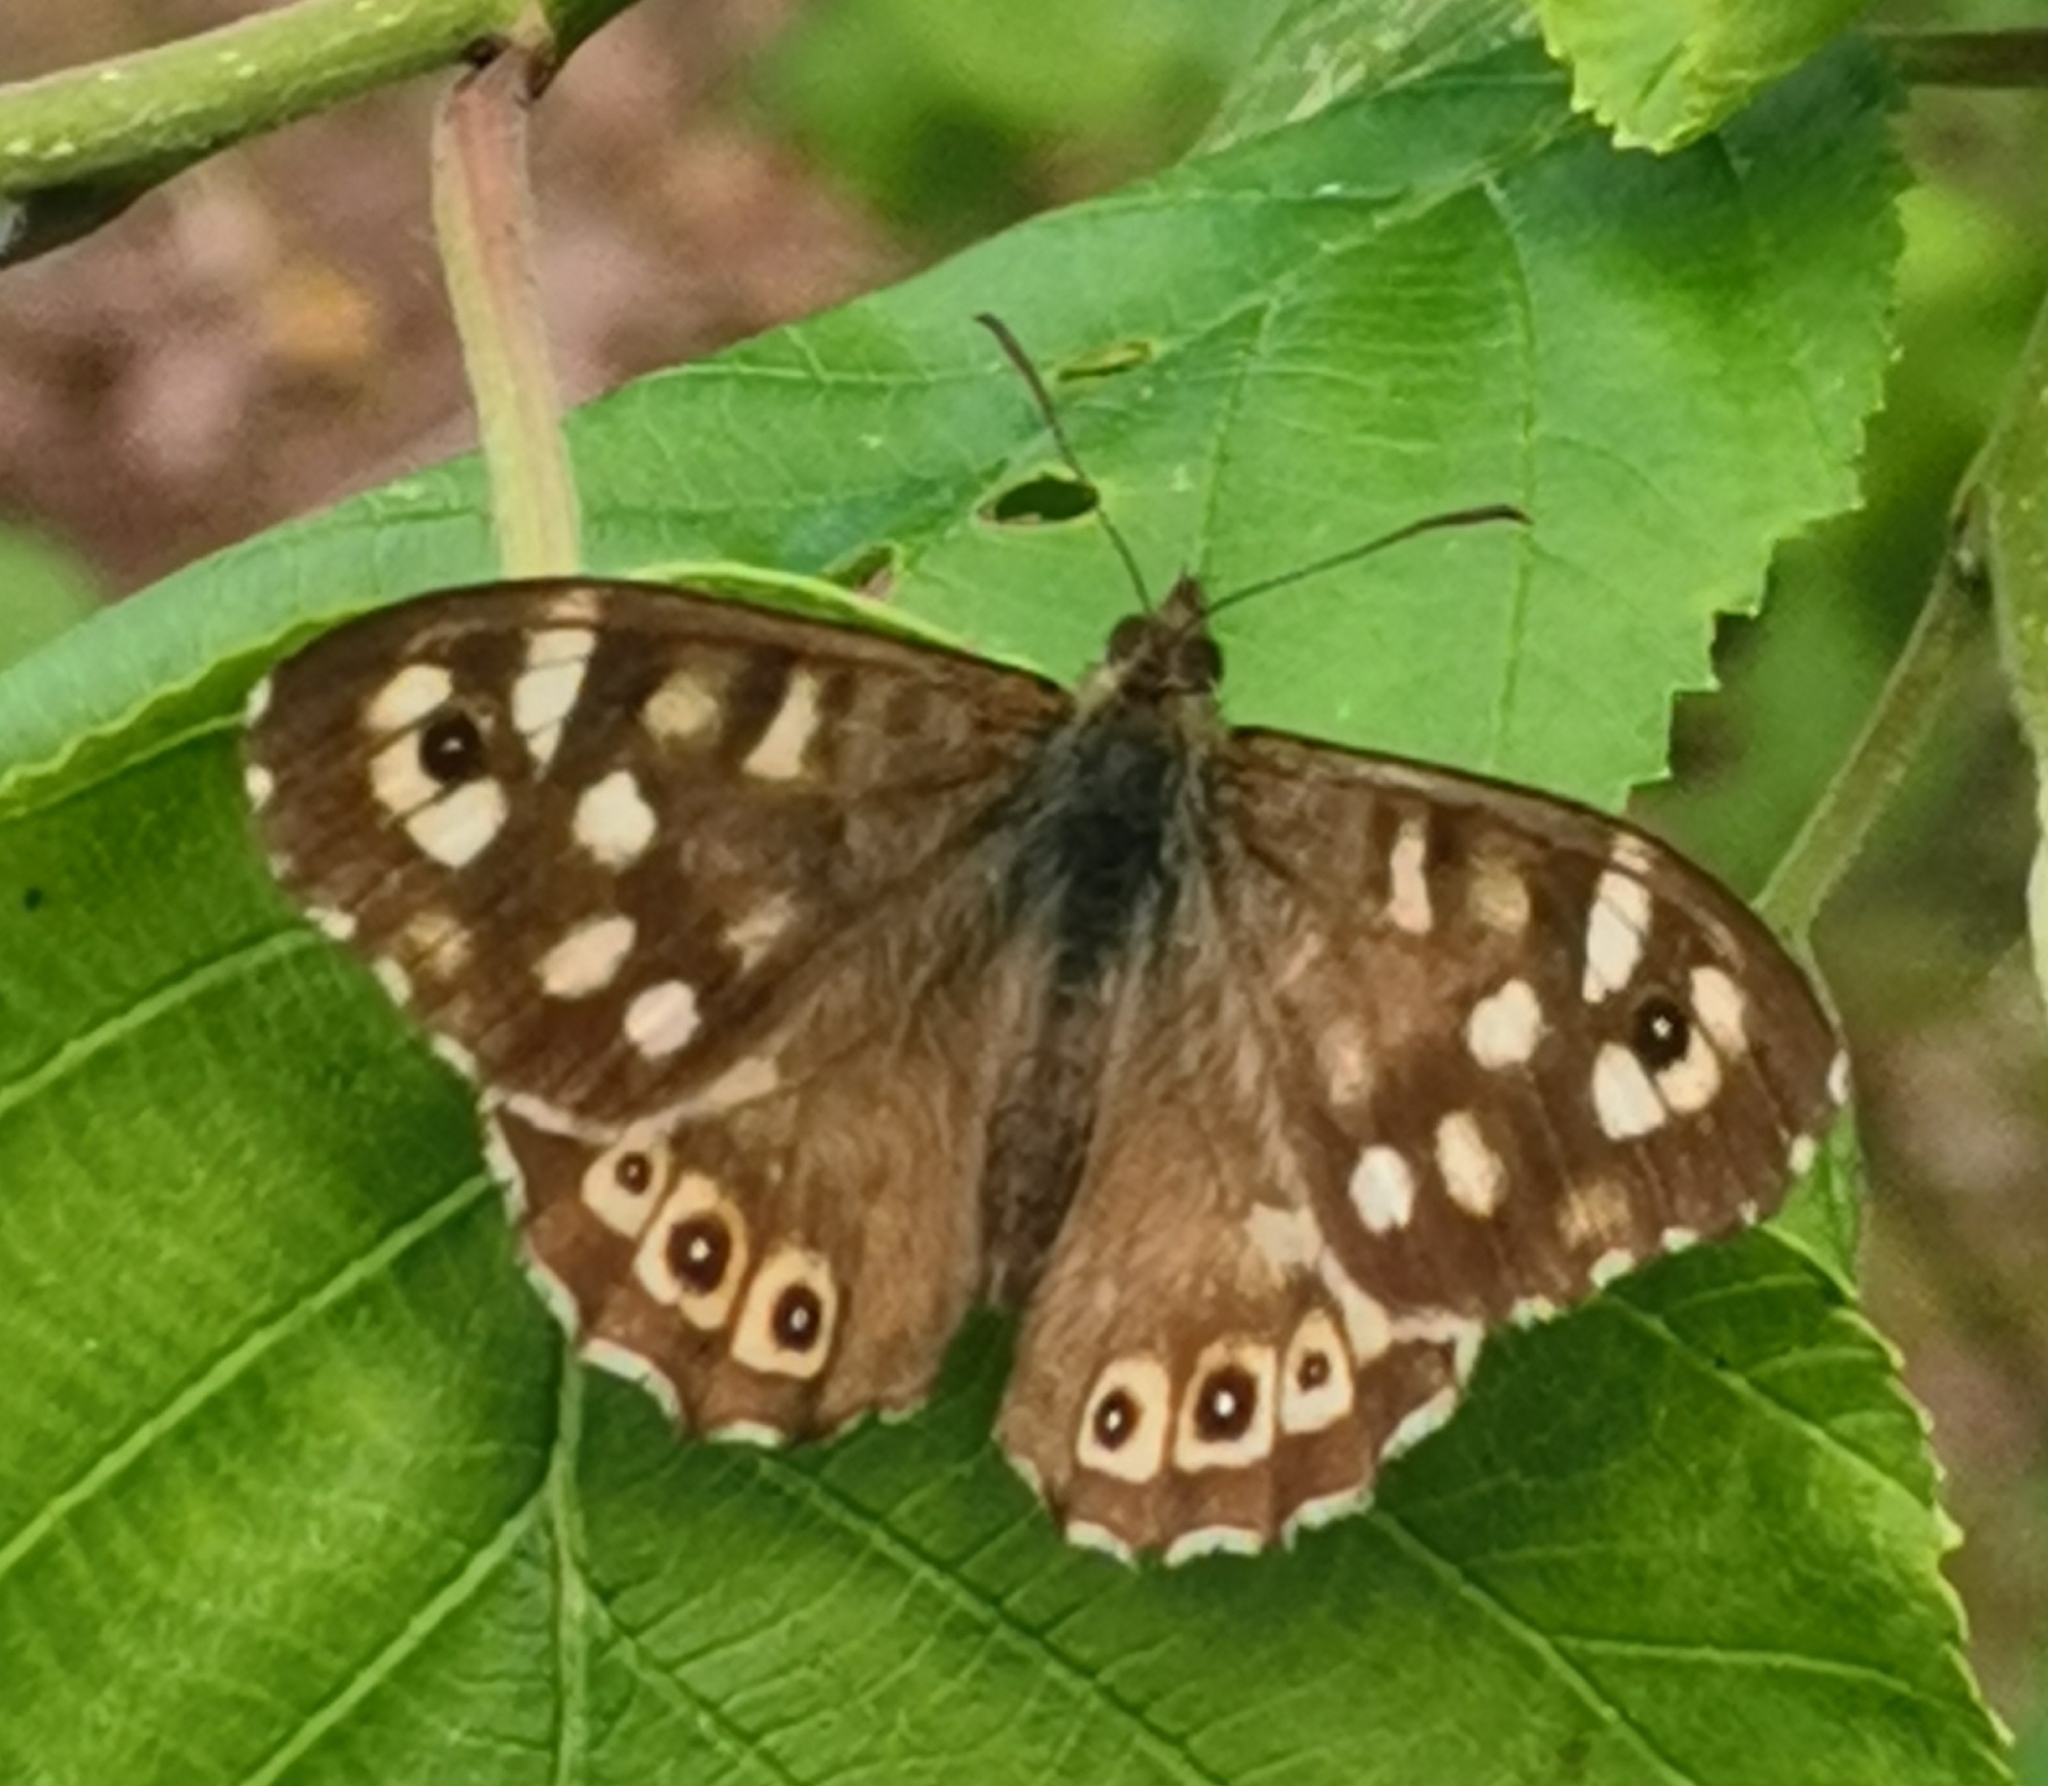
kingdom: Animalia
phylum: Arthropoda
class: Insecta
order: Lepidoptera
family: Nymphalidae
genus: Pararge
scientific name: Pararge aegeria
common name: Speckled wood
